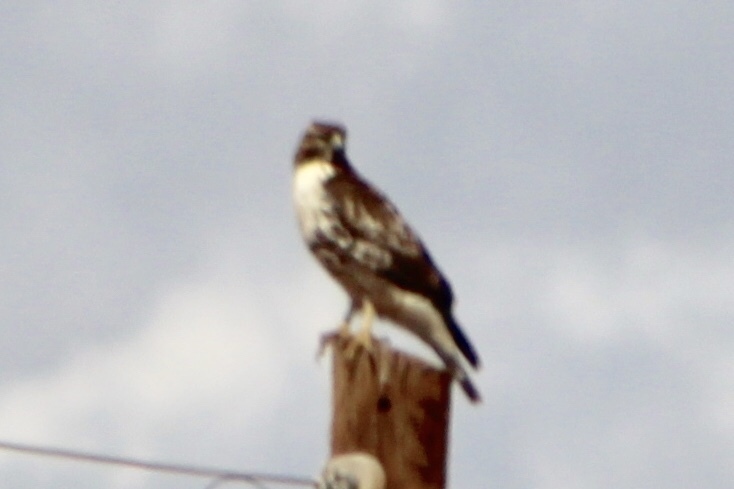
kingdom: Animalia
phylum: Chordata
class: Aves
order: Accipitriformes
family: Accipitridae
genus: Buteo
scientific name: Buteo jamaicensis
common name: Red-tailed hawk
